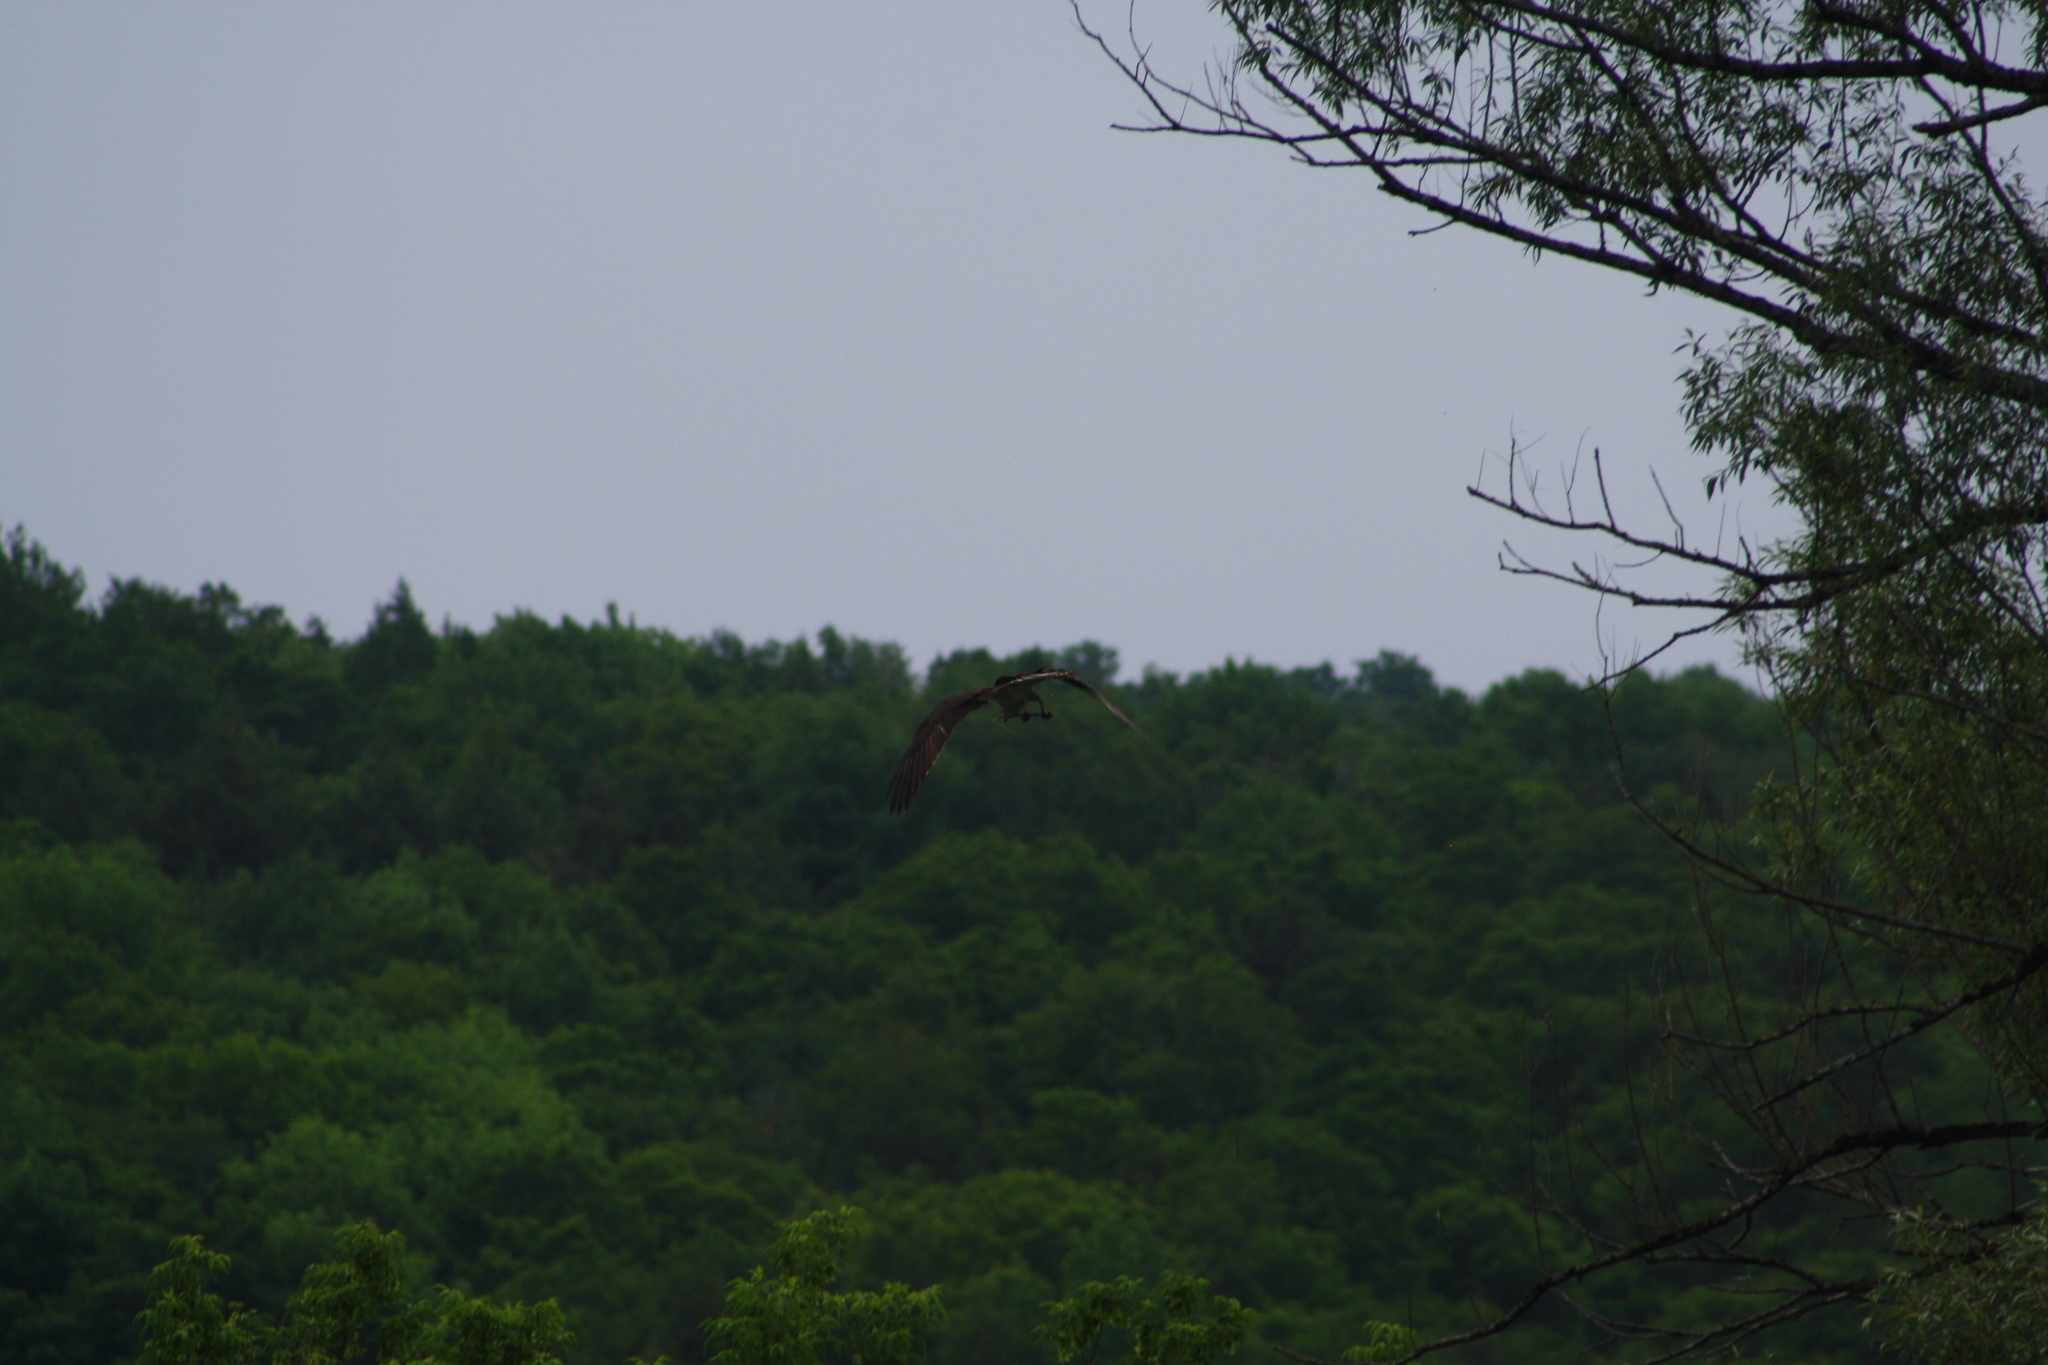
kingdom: Animalia
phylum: Chordata
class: Aves
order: Accipitriformes
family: Pandionidae
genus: Pandion
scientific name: Pandion haliaetus
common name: Osprey
